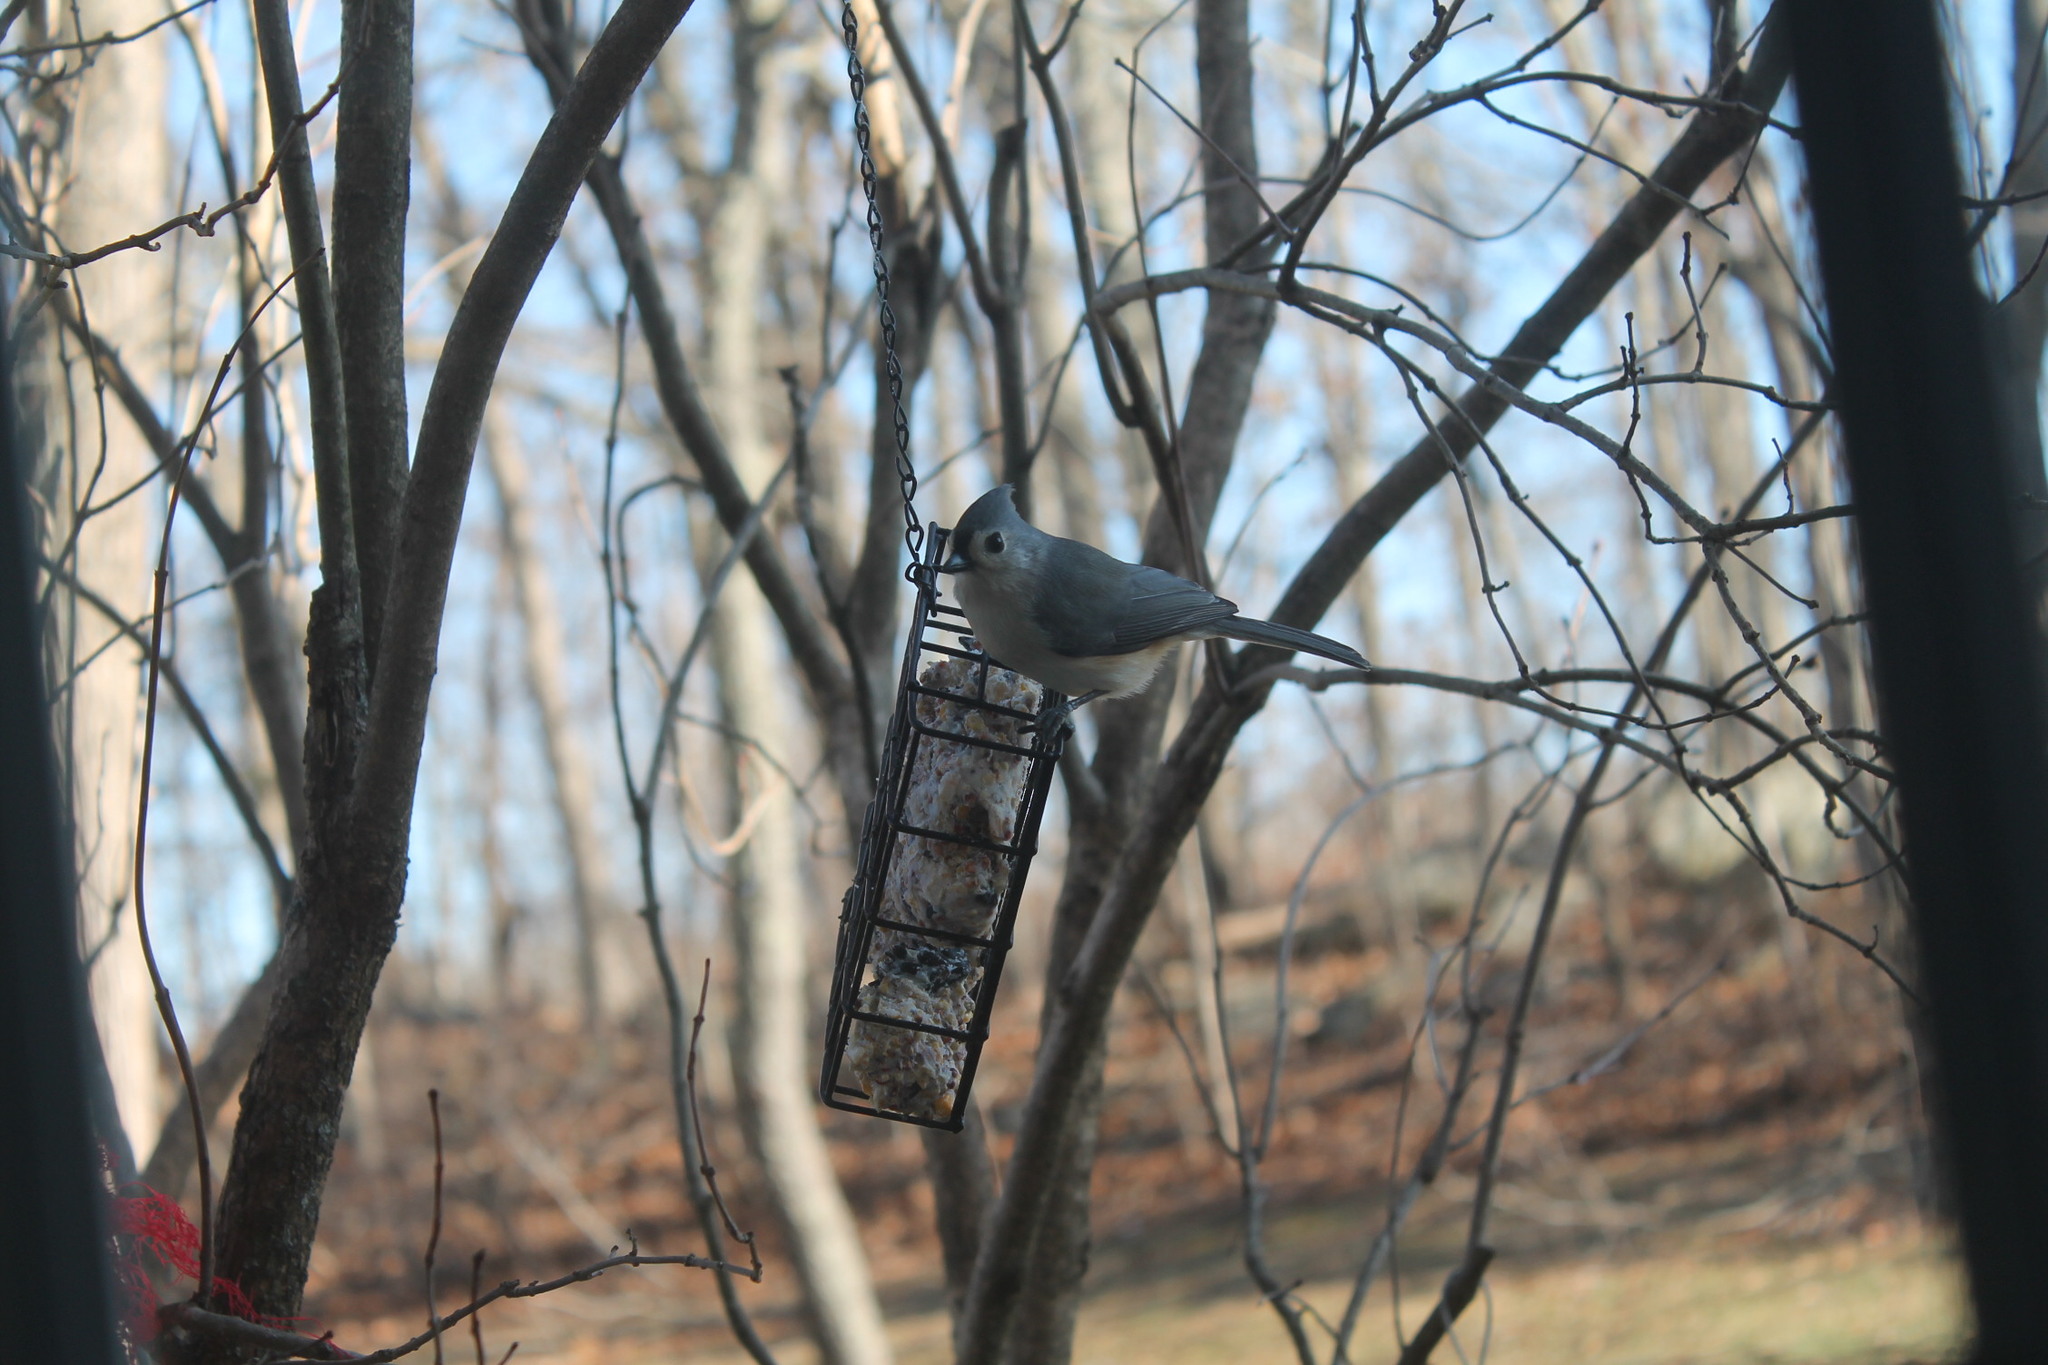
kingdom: Animalia
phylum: Chordata
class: Aves
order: Passeriformes
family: Paridae
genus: Baeolophus
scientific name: Baeolophus bicolor
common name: Tufted titmouse
